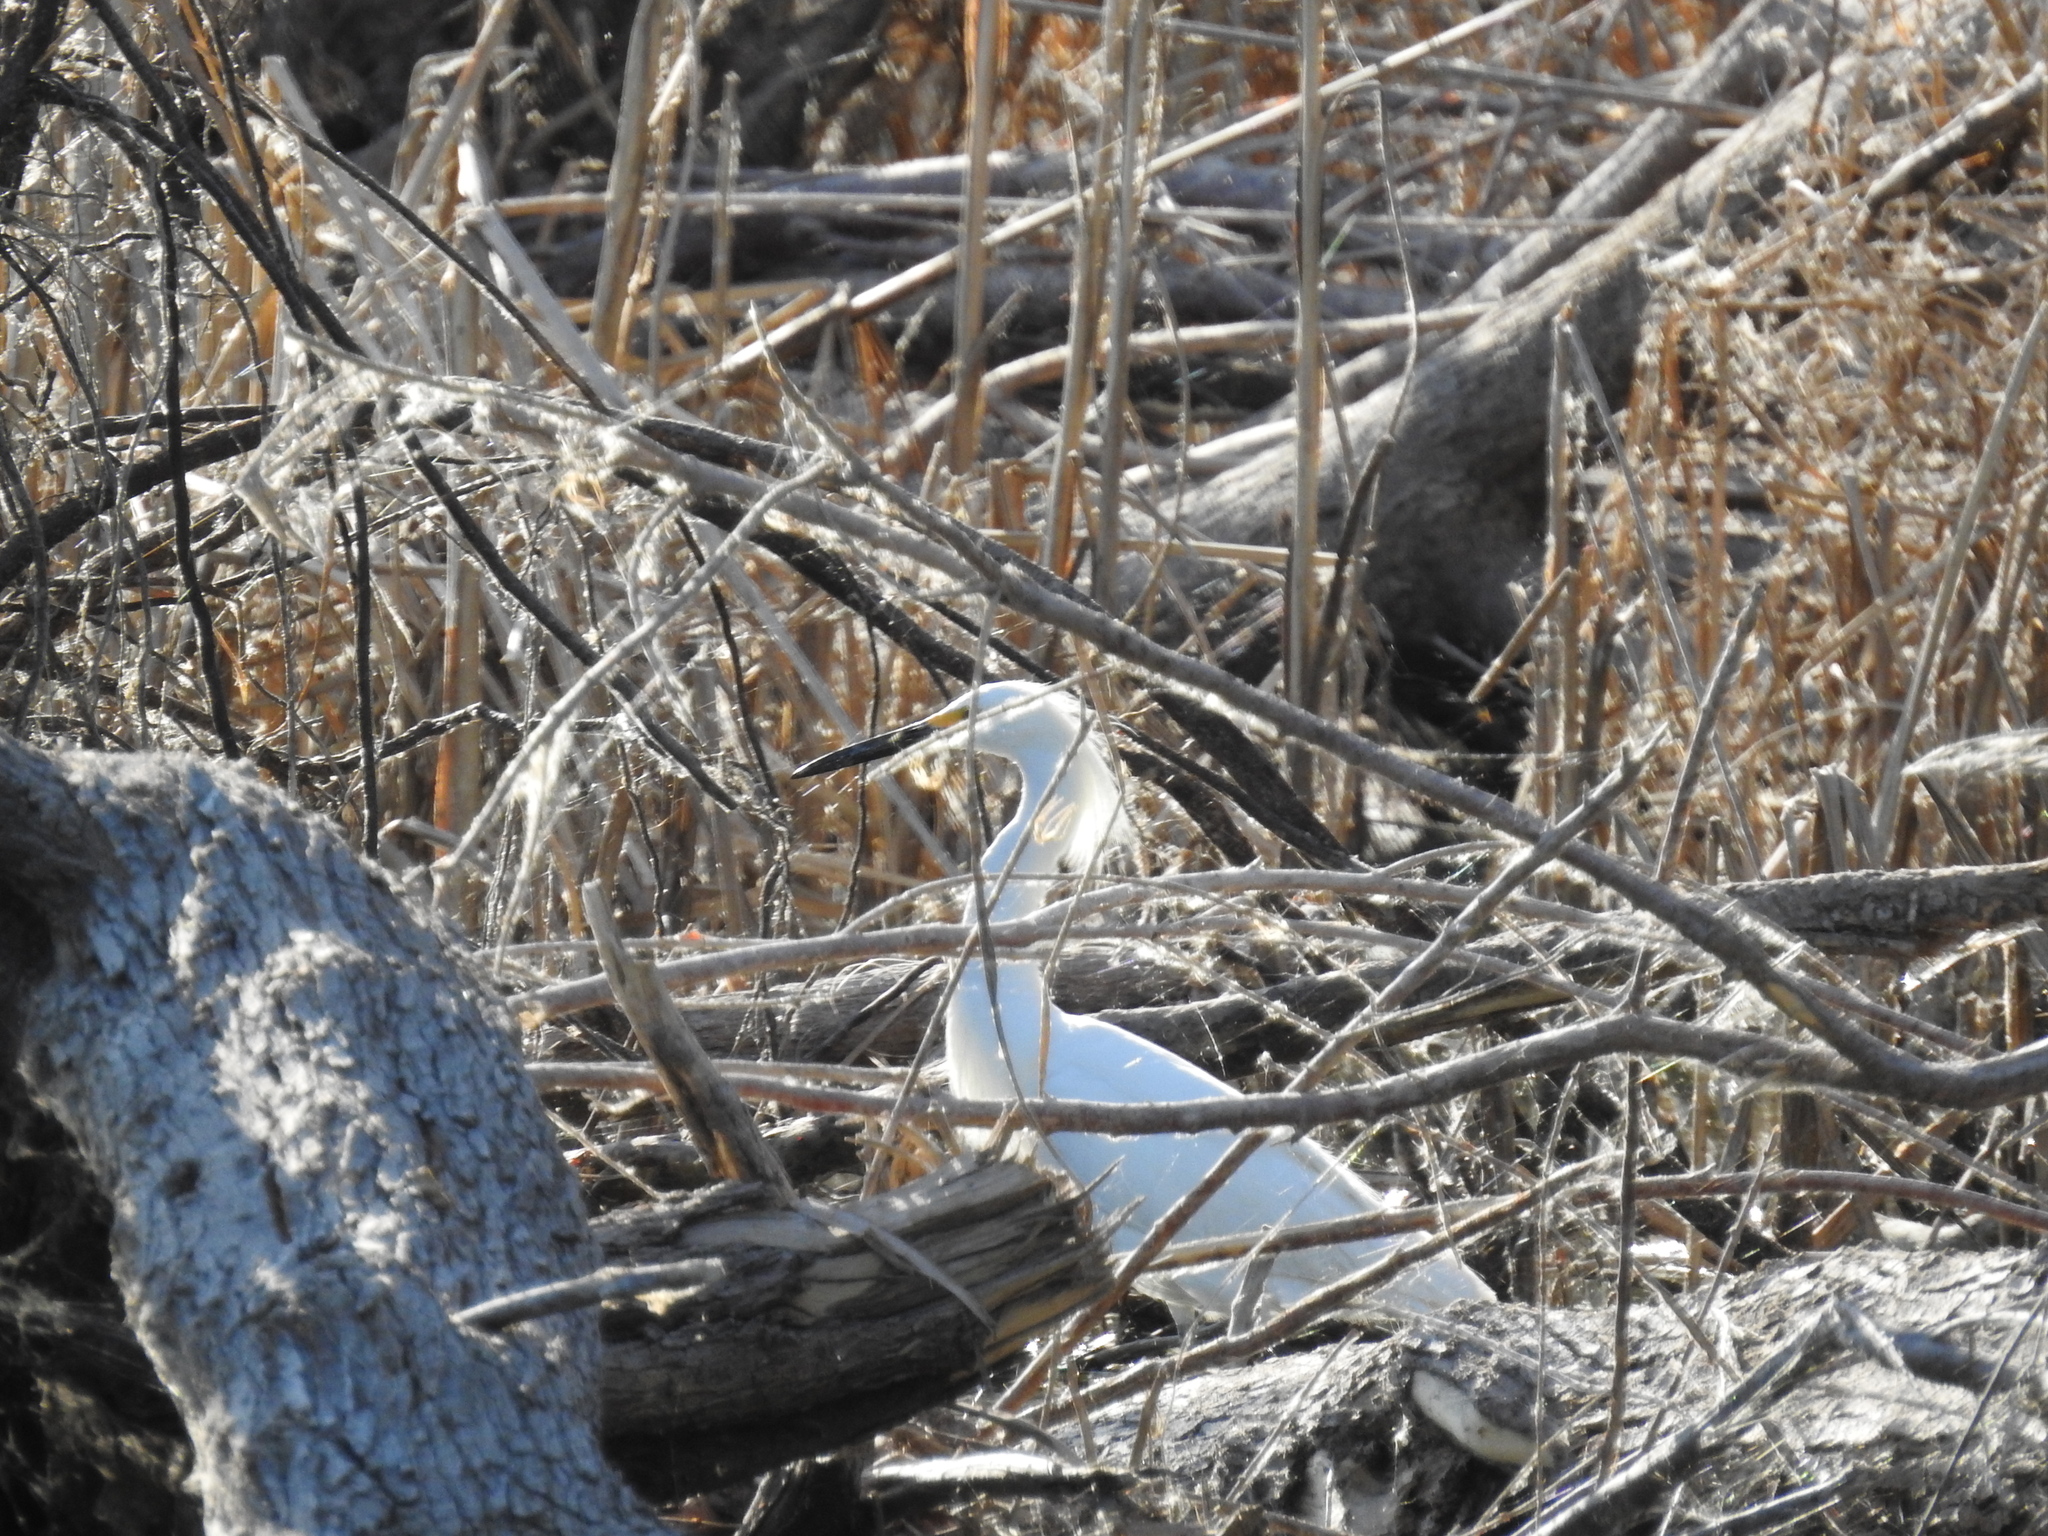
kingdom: Animalia
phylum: Chordata
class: Aves
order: Pelecaniformes
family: Ardeidae
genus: Egretta
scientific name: Egretta thula
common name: Snowy egret
